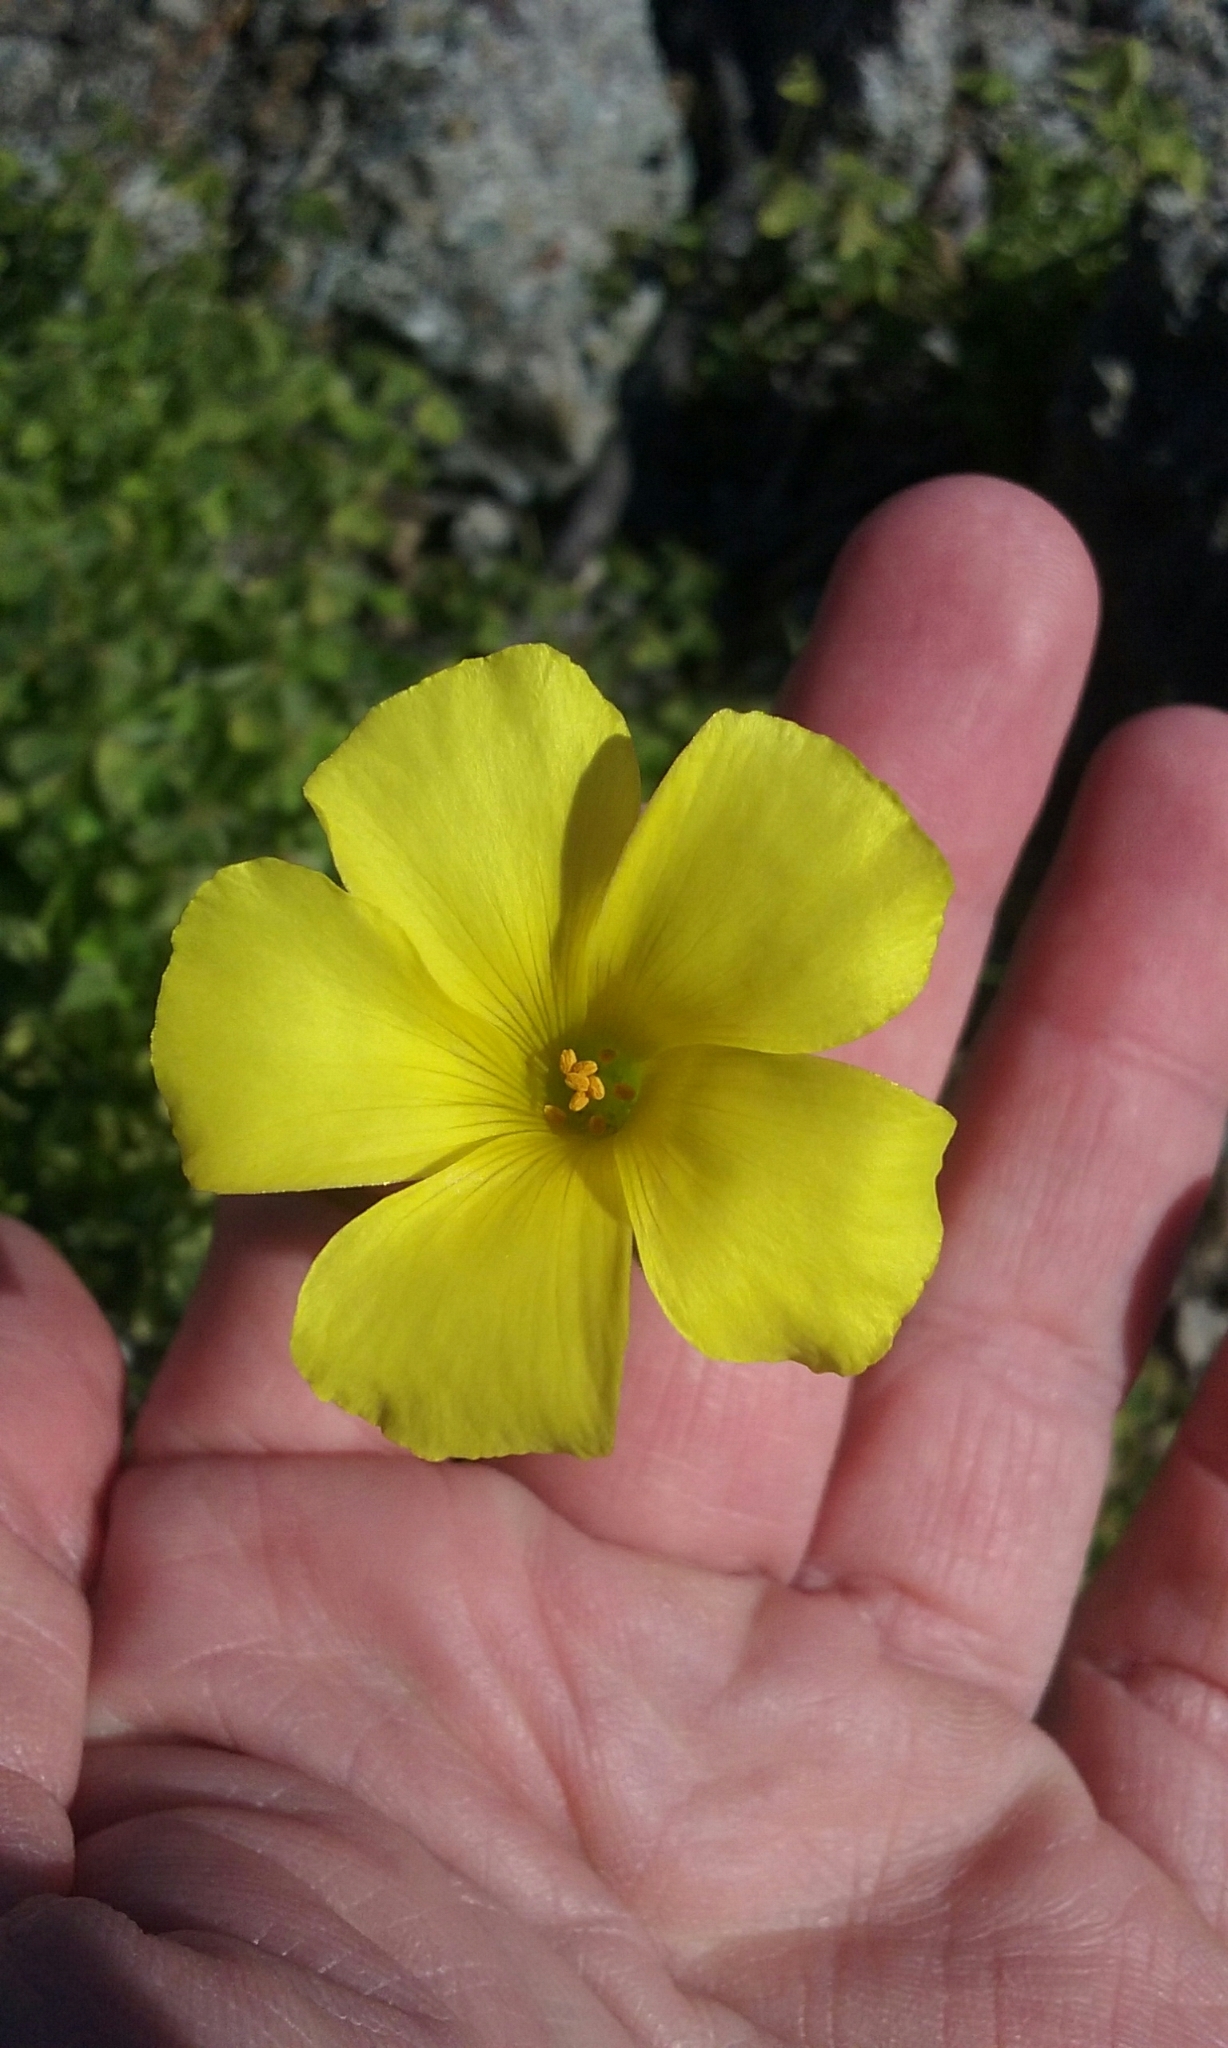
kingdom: Plantae
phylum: Tracheophyta
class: Magnoliopsida
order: Oxalidales
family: Oxalidaceae
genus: Oxalis
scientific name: Oxalis pes-caprae
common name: Bermuda-buttercup
